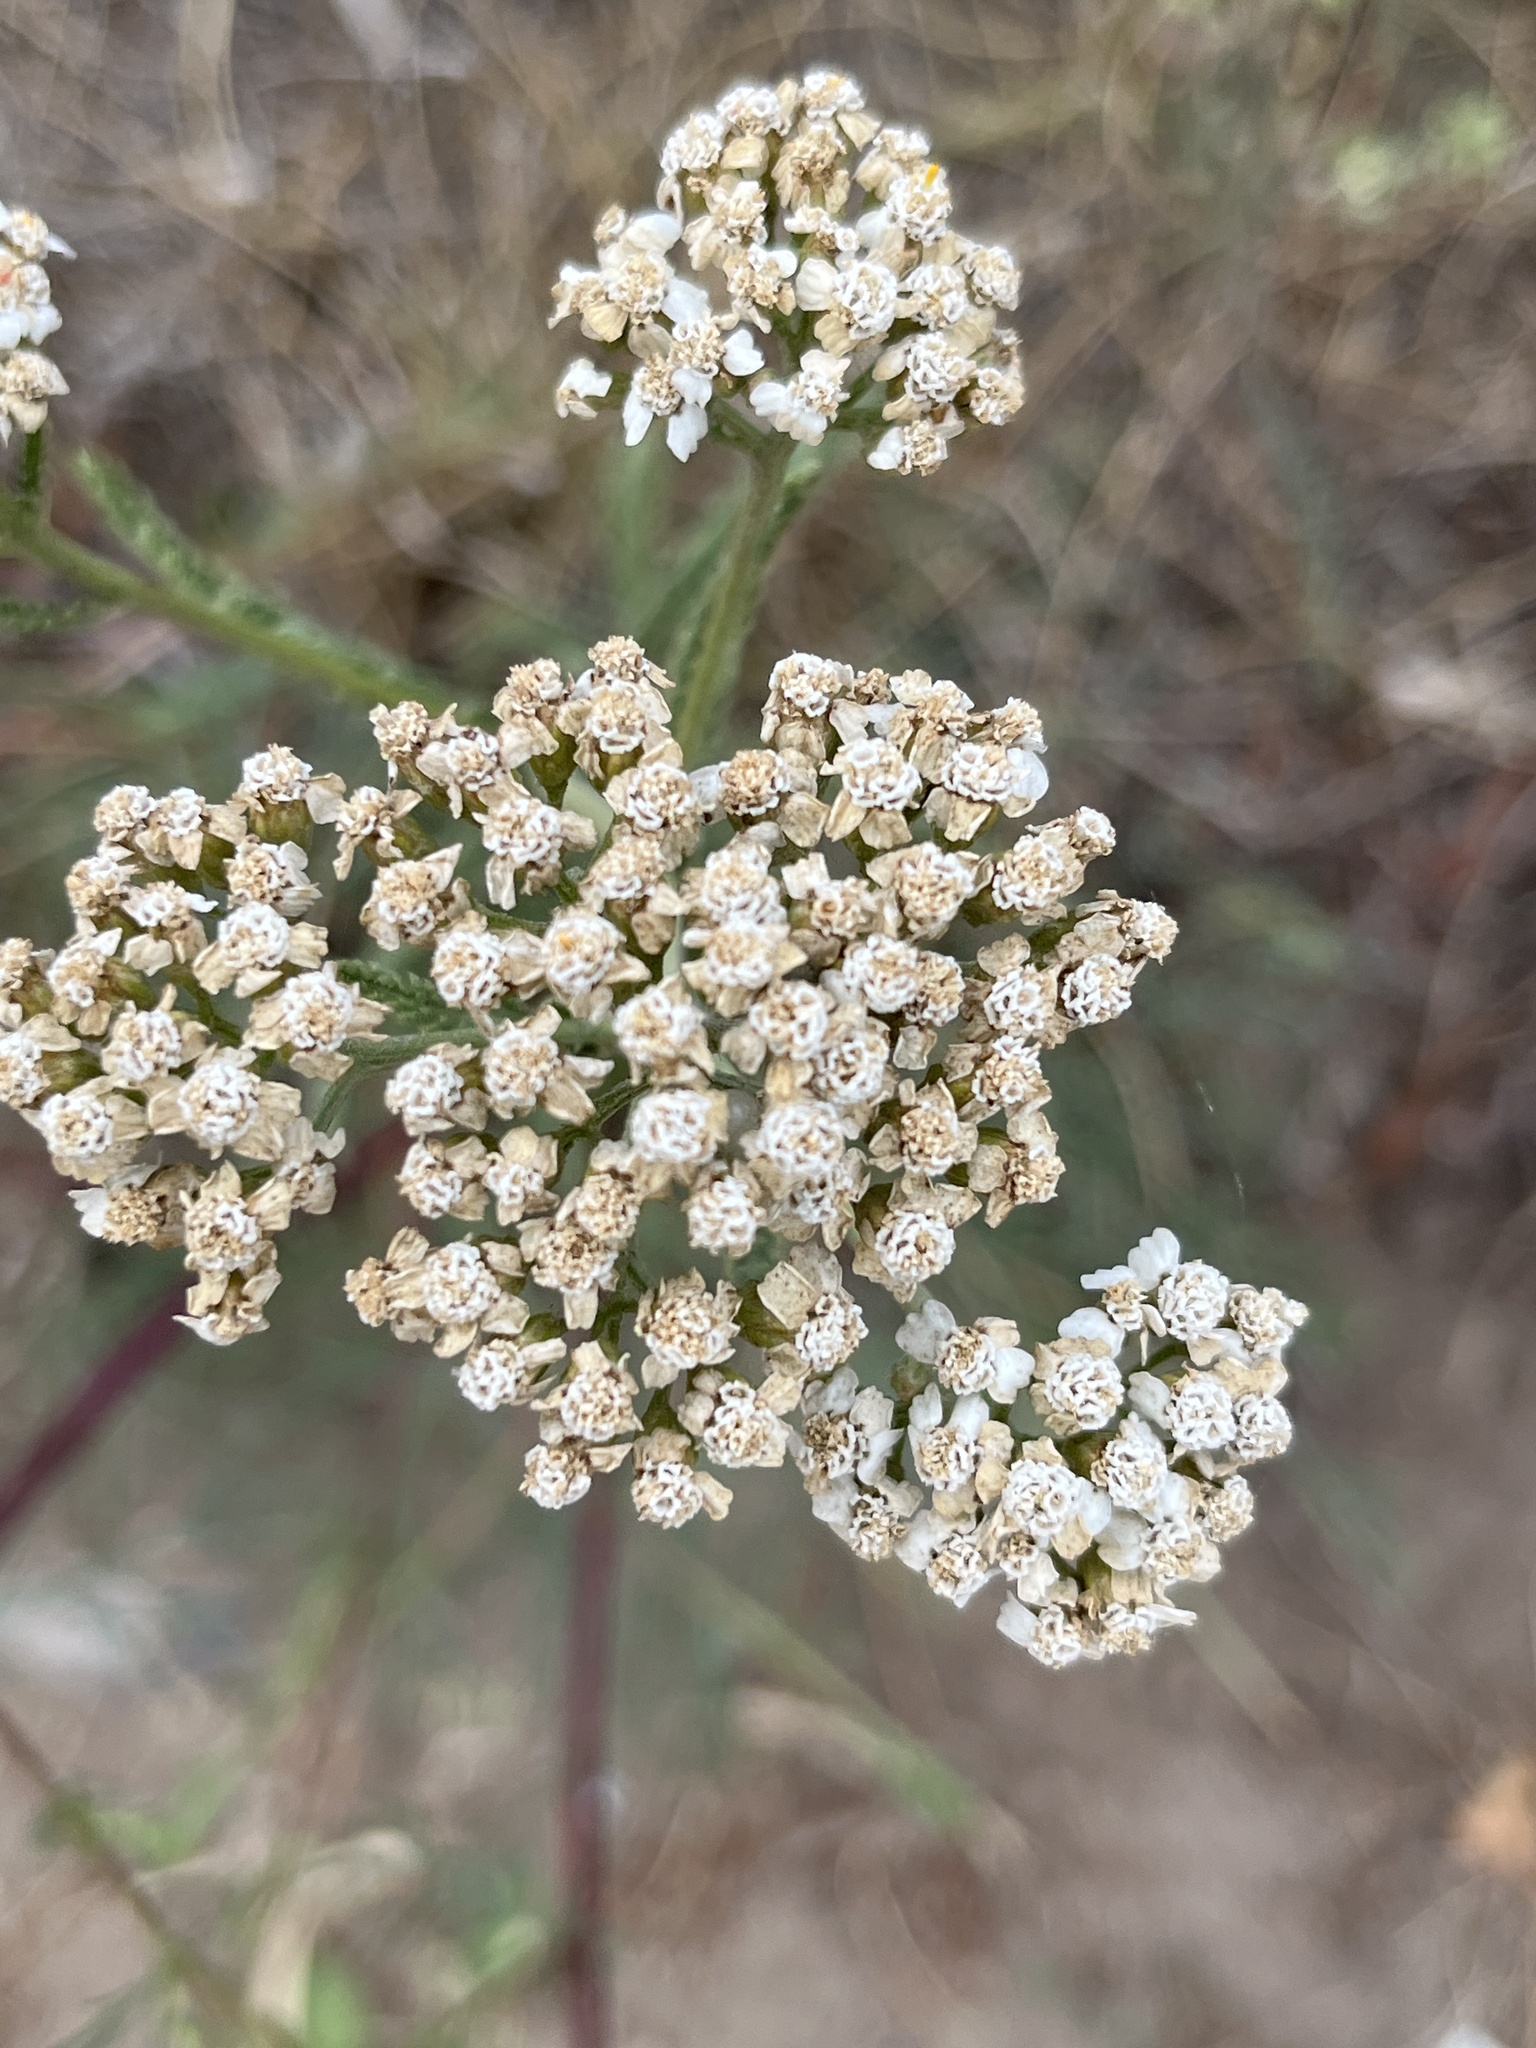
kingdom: Plantae
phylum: Tracheophyta
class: Magnoliopsida
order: Asterales
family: Asteraceae
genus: Achillea
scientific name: Achillea millefolium
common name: Yarrow
